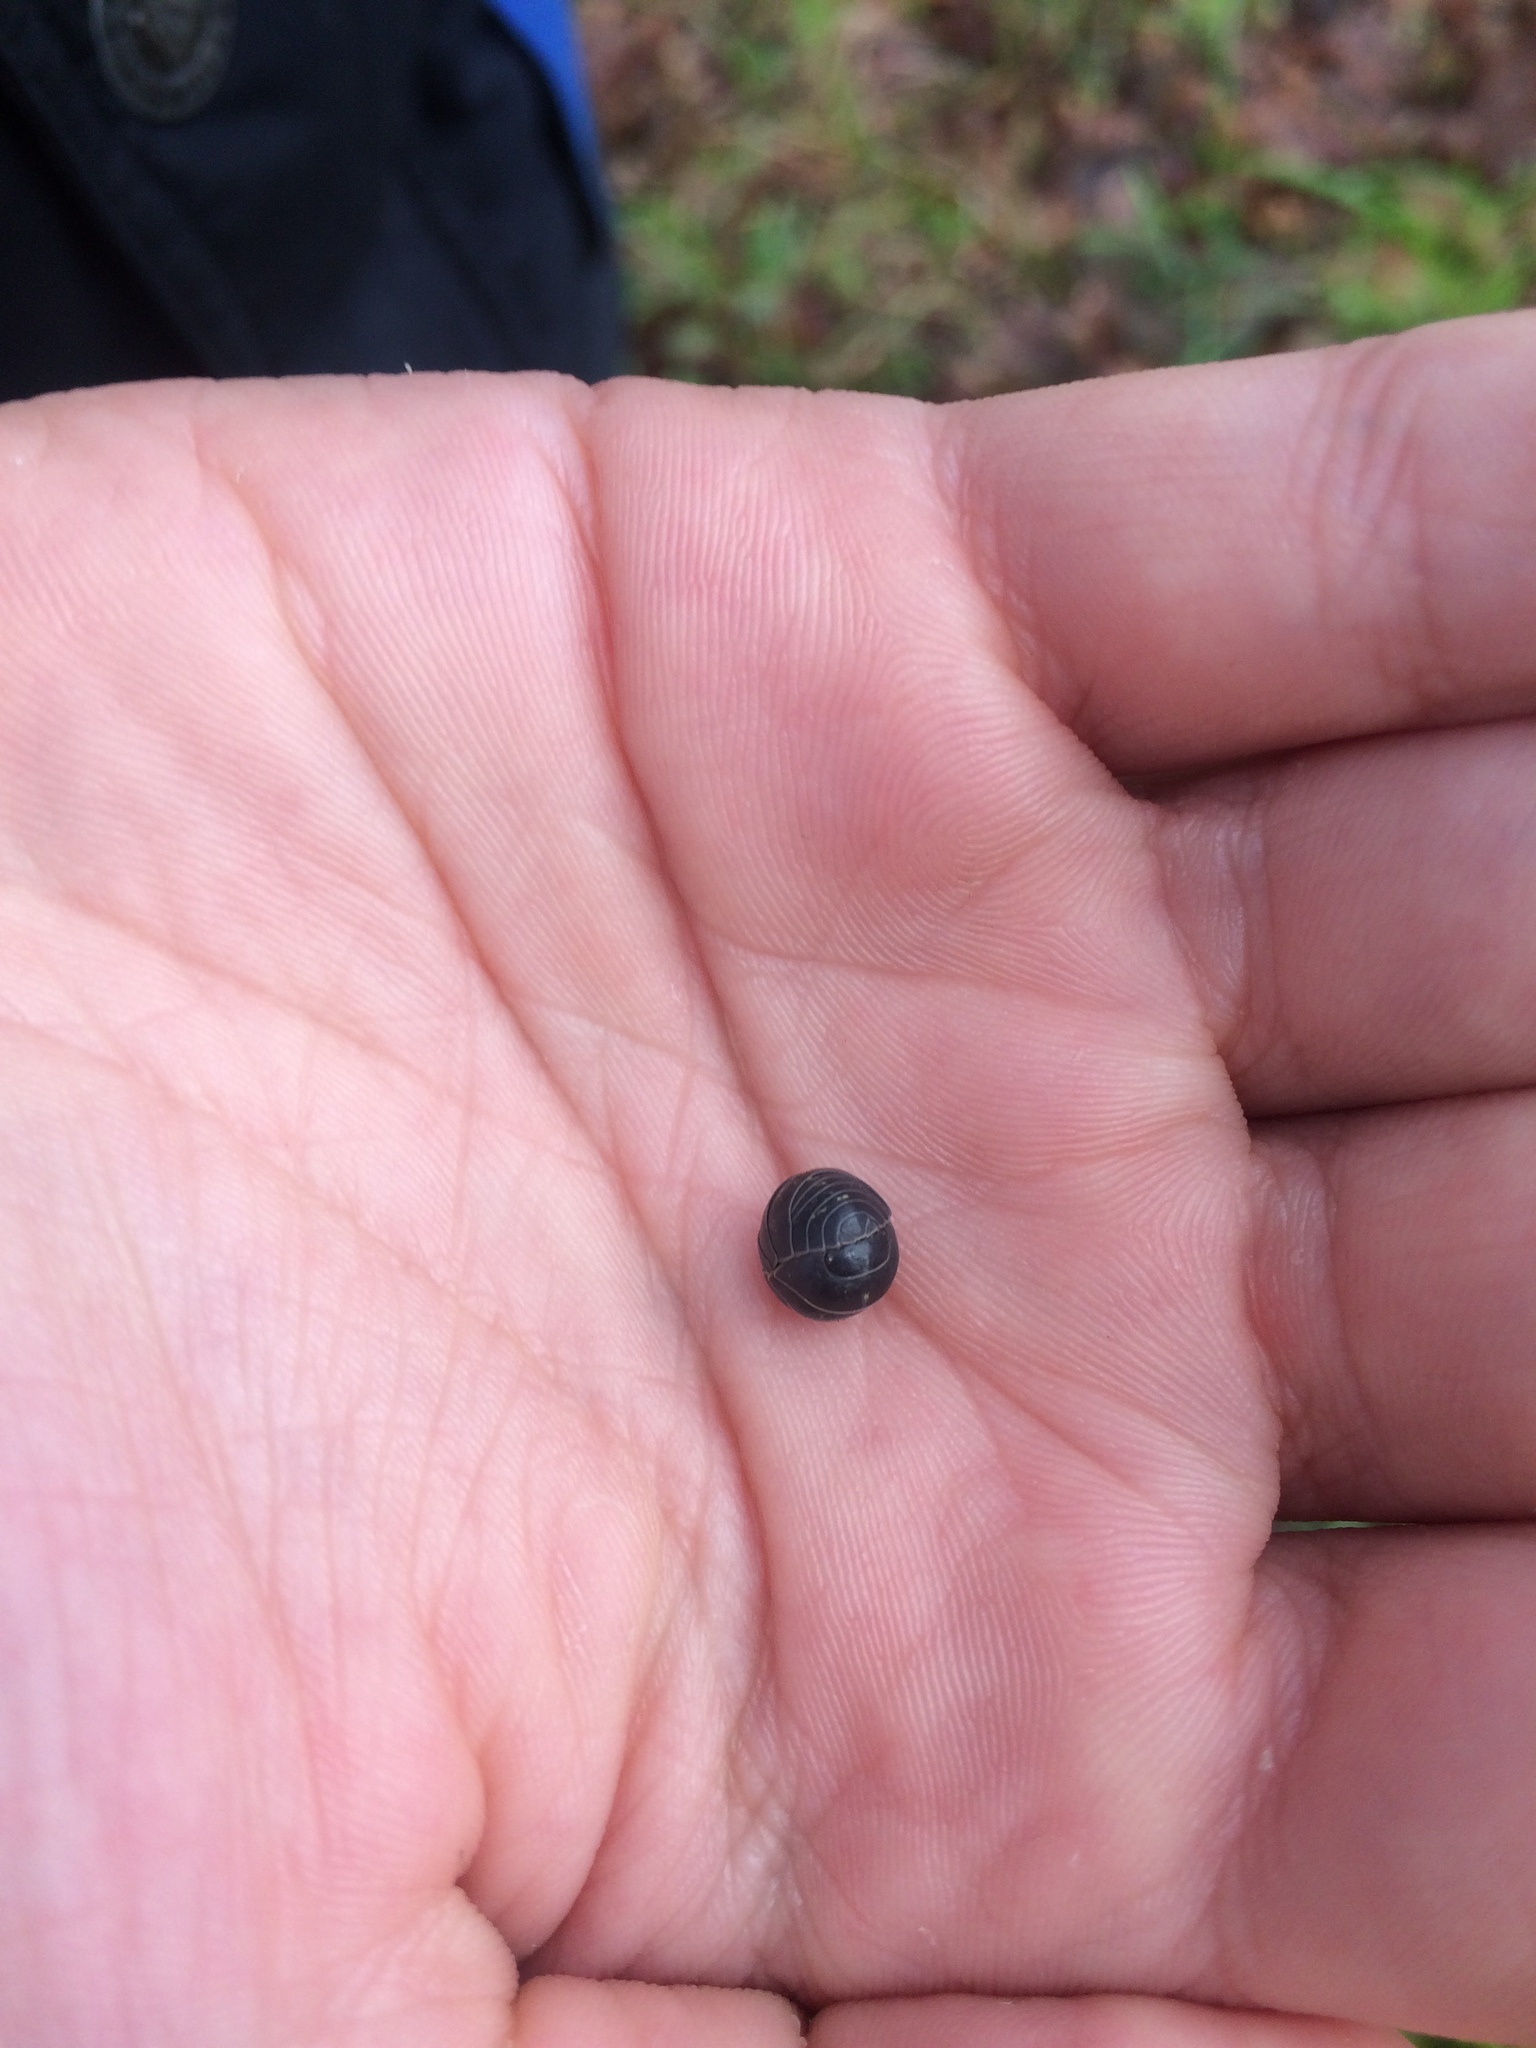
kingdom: Animalia
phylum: Arthropoda
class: Malacostraca
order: Isopoda
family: Armadillidiidae
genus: Armadillidium
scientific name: Armadillidium vulgare
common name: Common pill woodlouse
